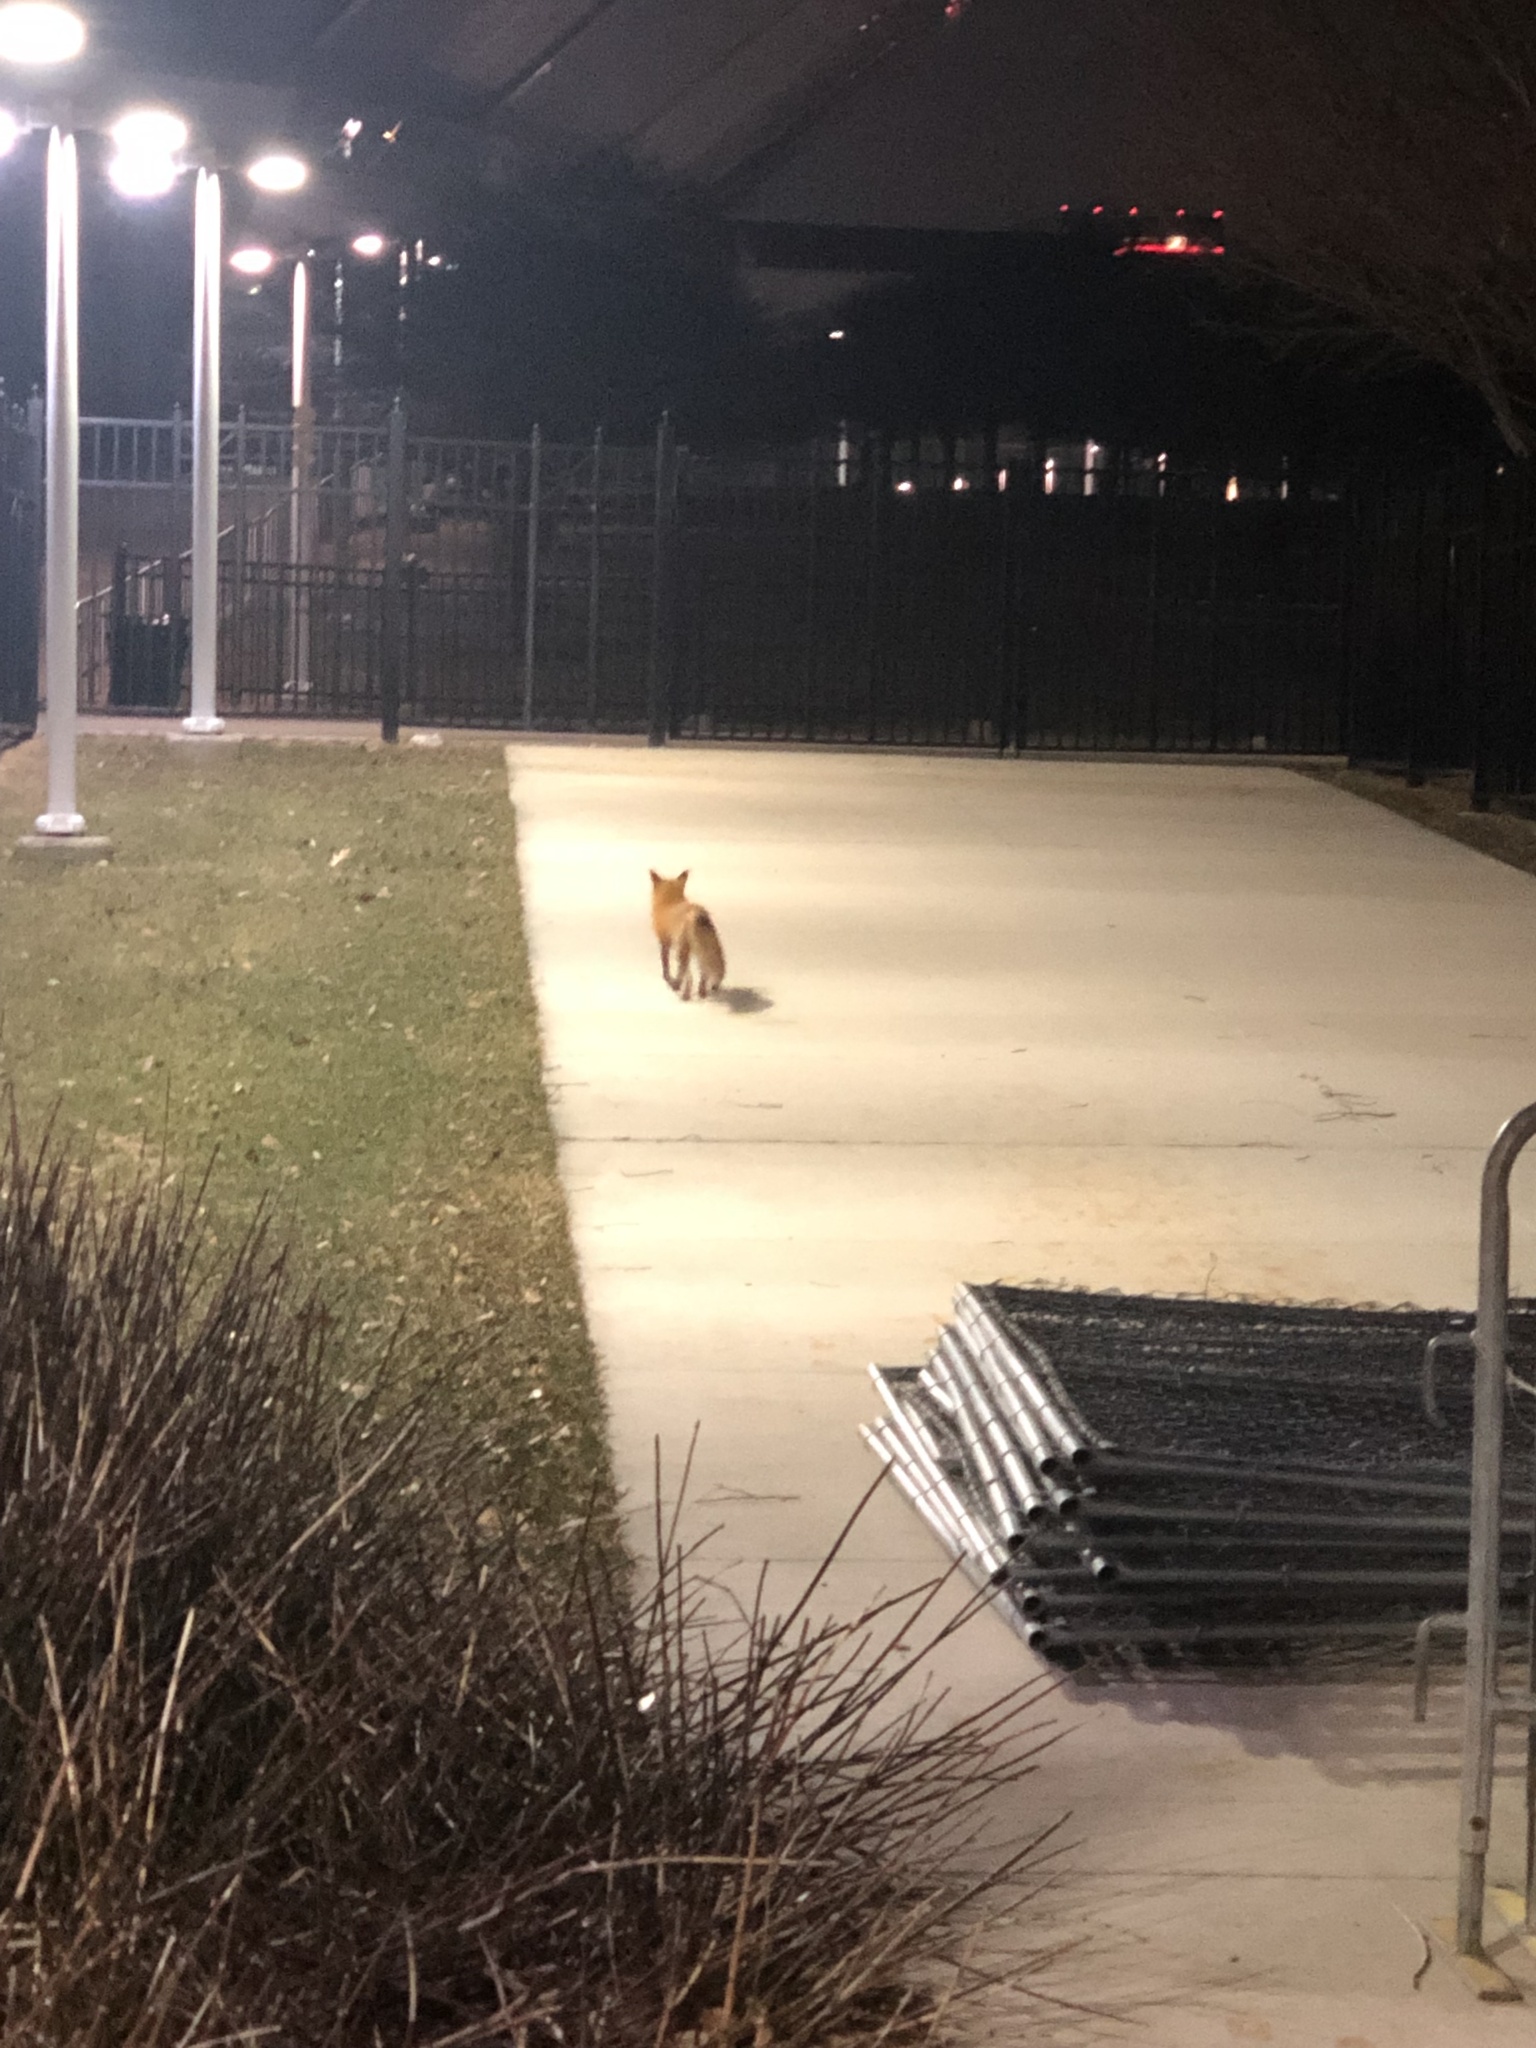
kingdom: Animalia
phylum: Chordata
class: Mammalia
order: Carnivora
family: Canidae
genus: Vulpes
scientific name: Vulpes vulpes
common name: Red fox
